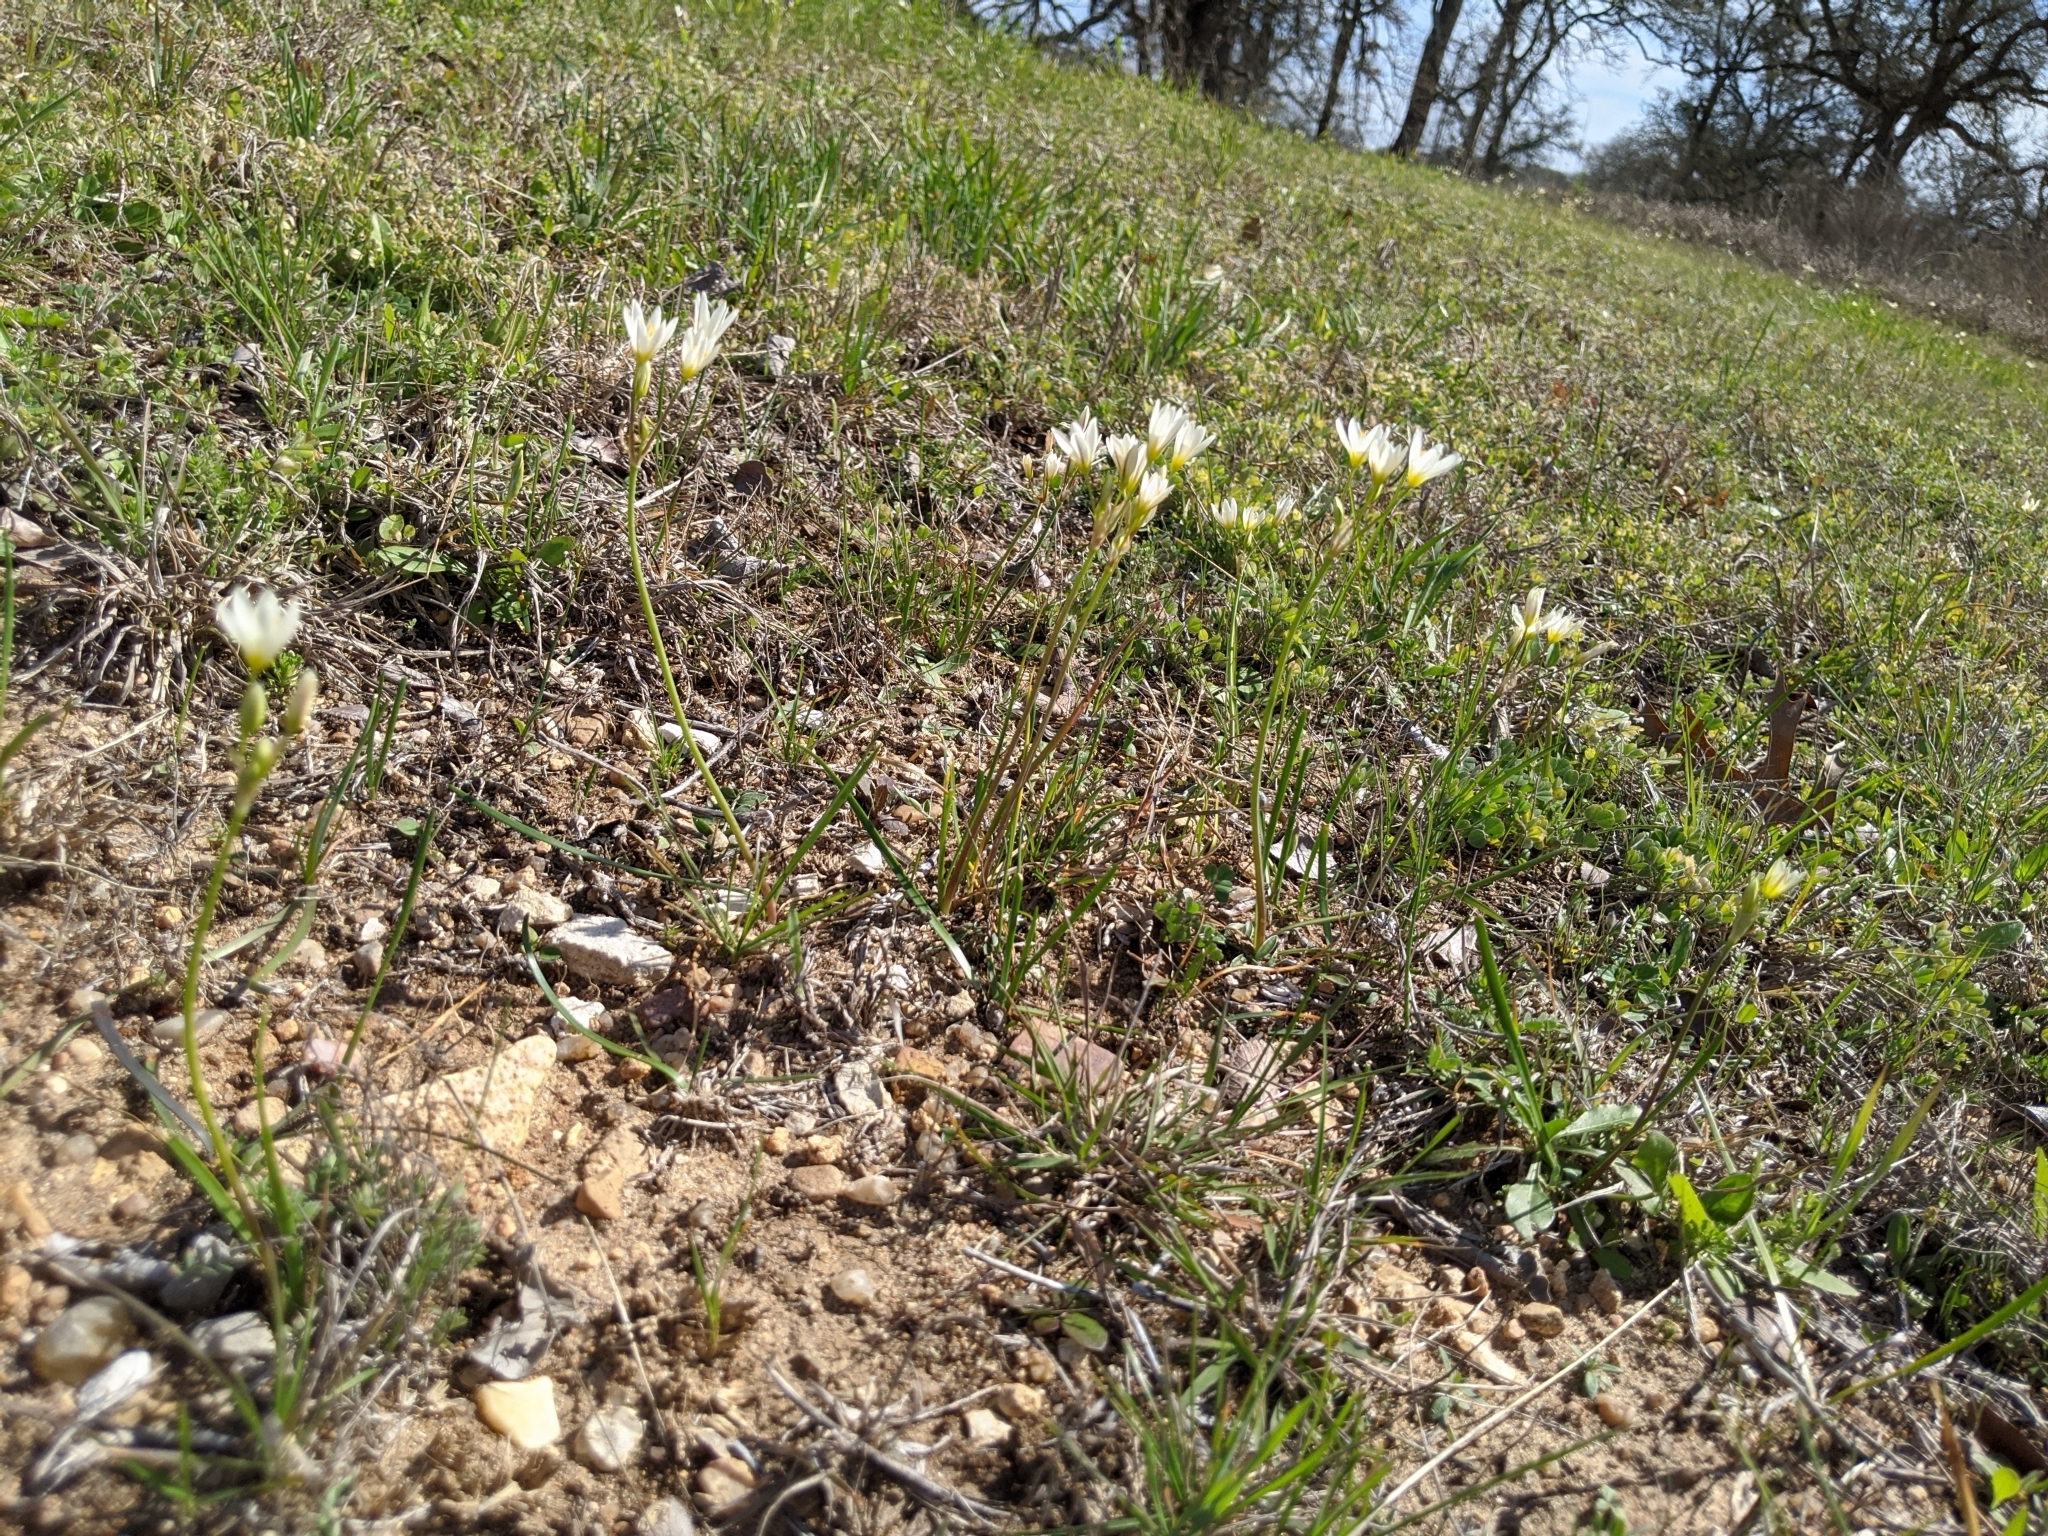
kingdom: Plantae
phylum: Tracheophyta
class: Liliopsida
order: Asparagales
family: Amaryllidaceae
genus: Nothoscordum
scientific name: Nothoscordum bivalve
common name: Crow-poison
